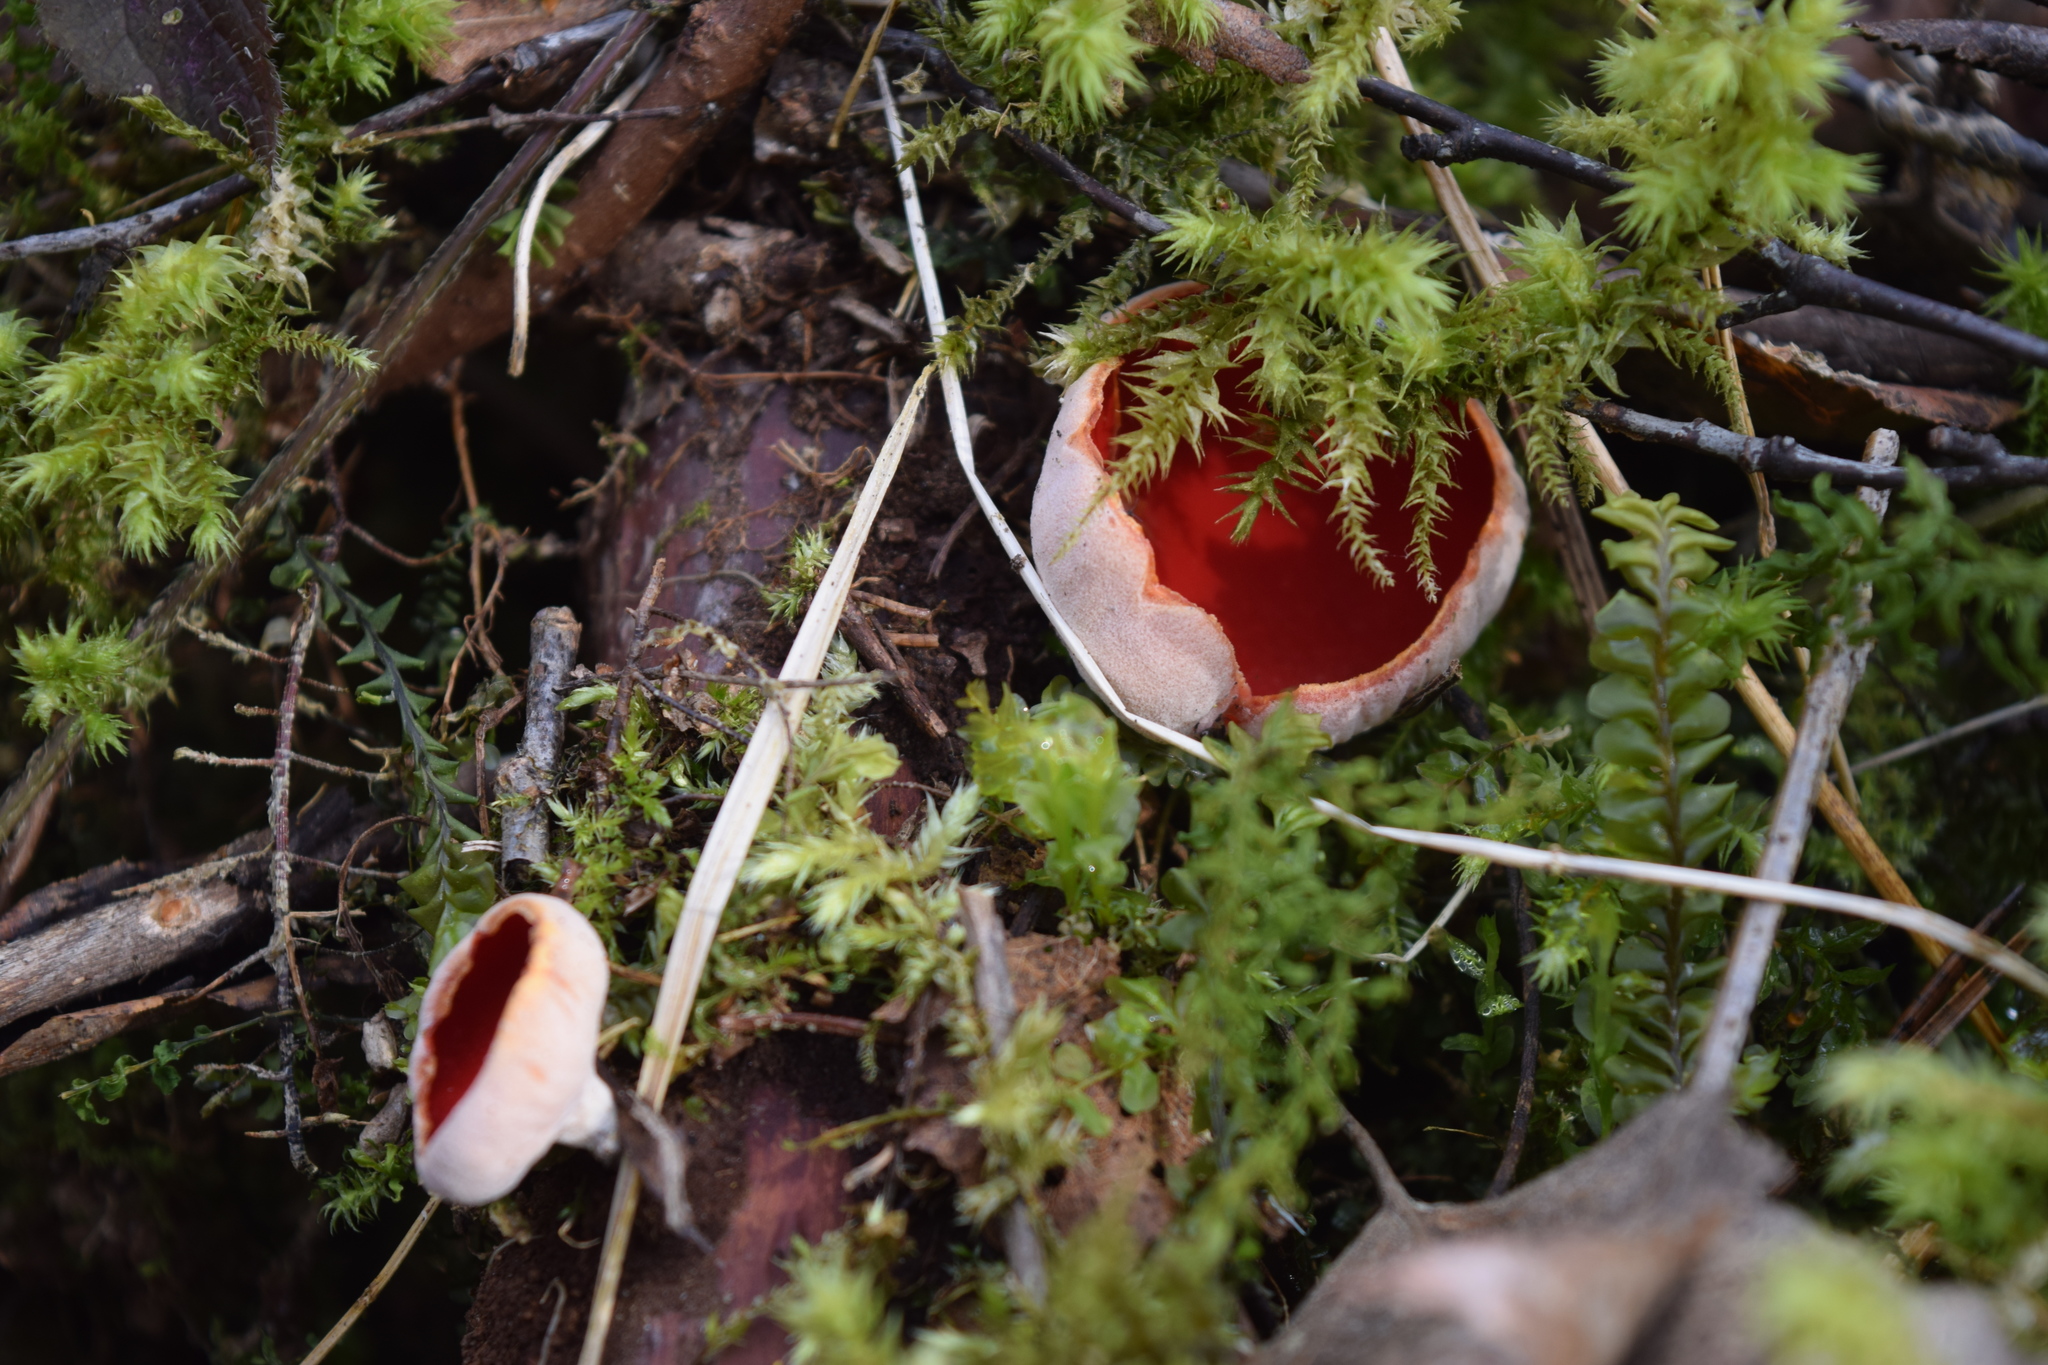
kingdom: Fungi
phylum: Ascomycota
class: Pezizomycetes
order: Pezizales
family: Sarcoscyphaceae
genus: Sarcoscypha
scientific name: Sarcoscypha austriaca
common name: Scarlet elfcup
